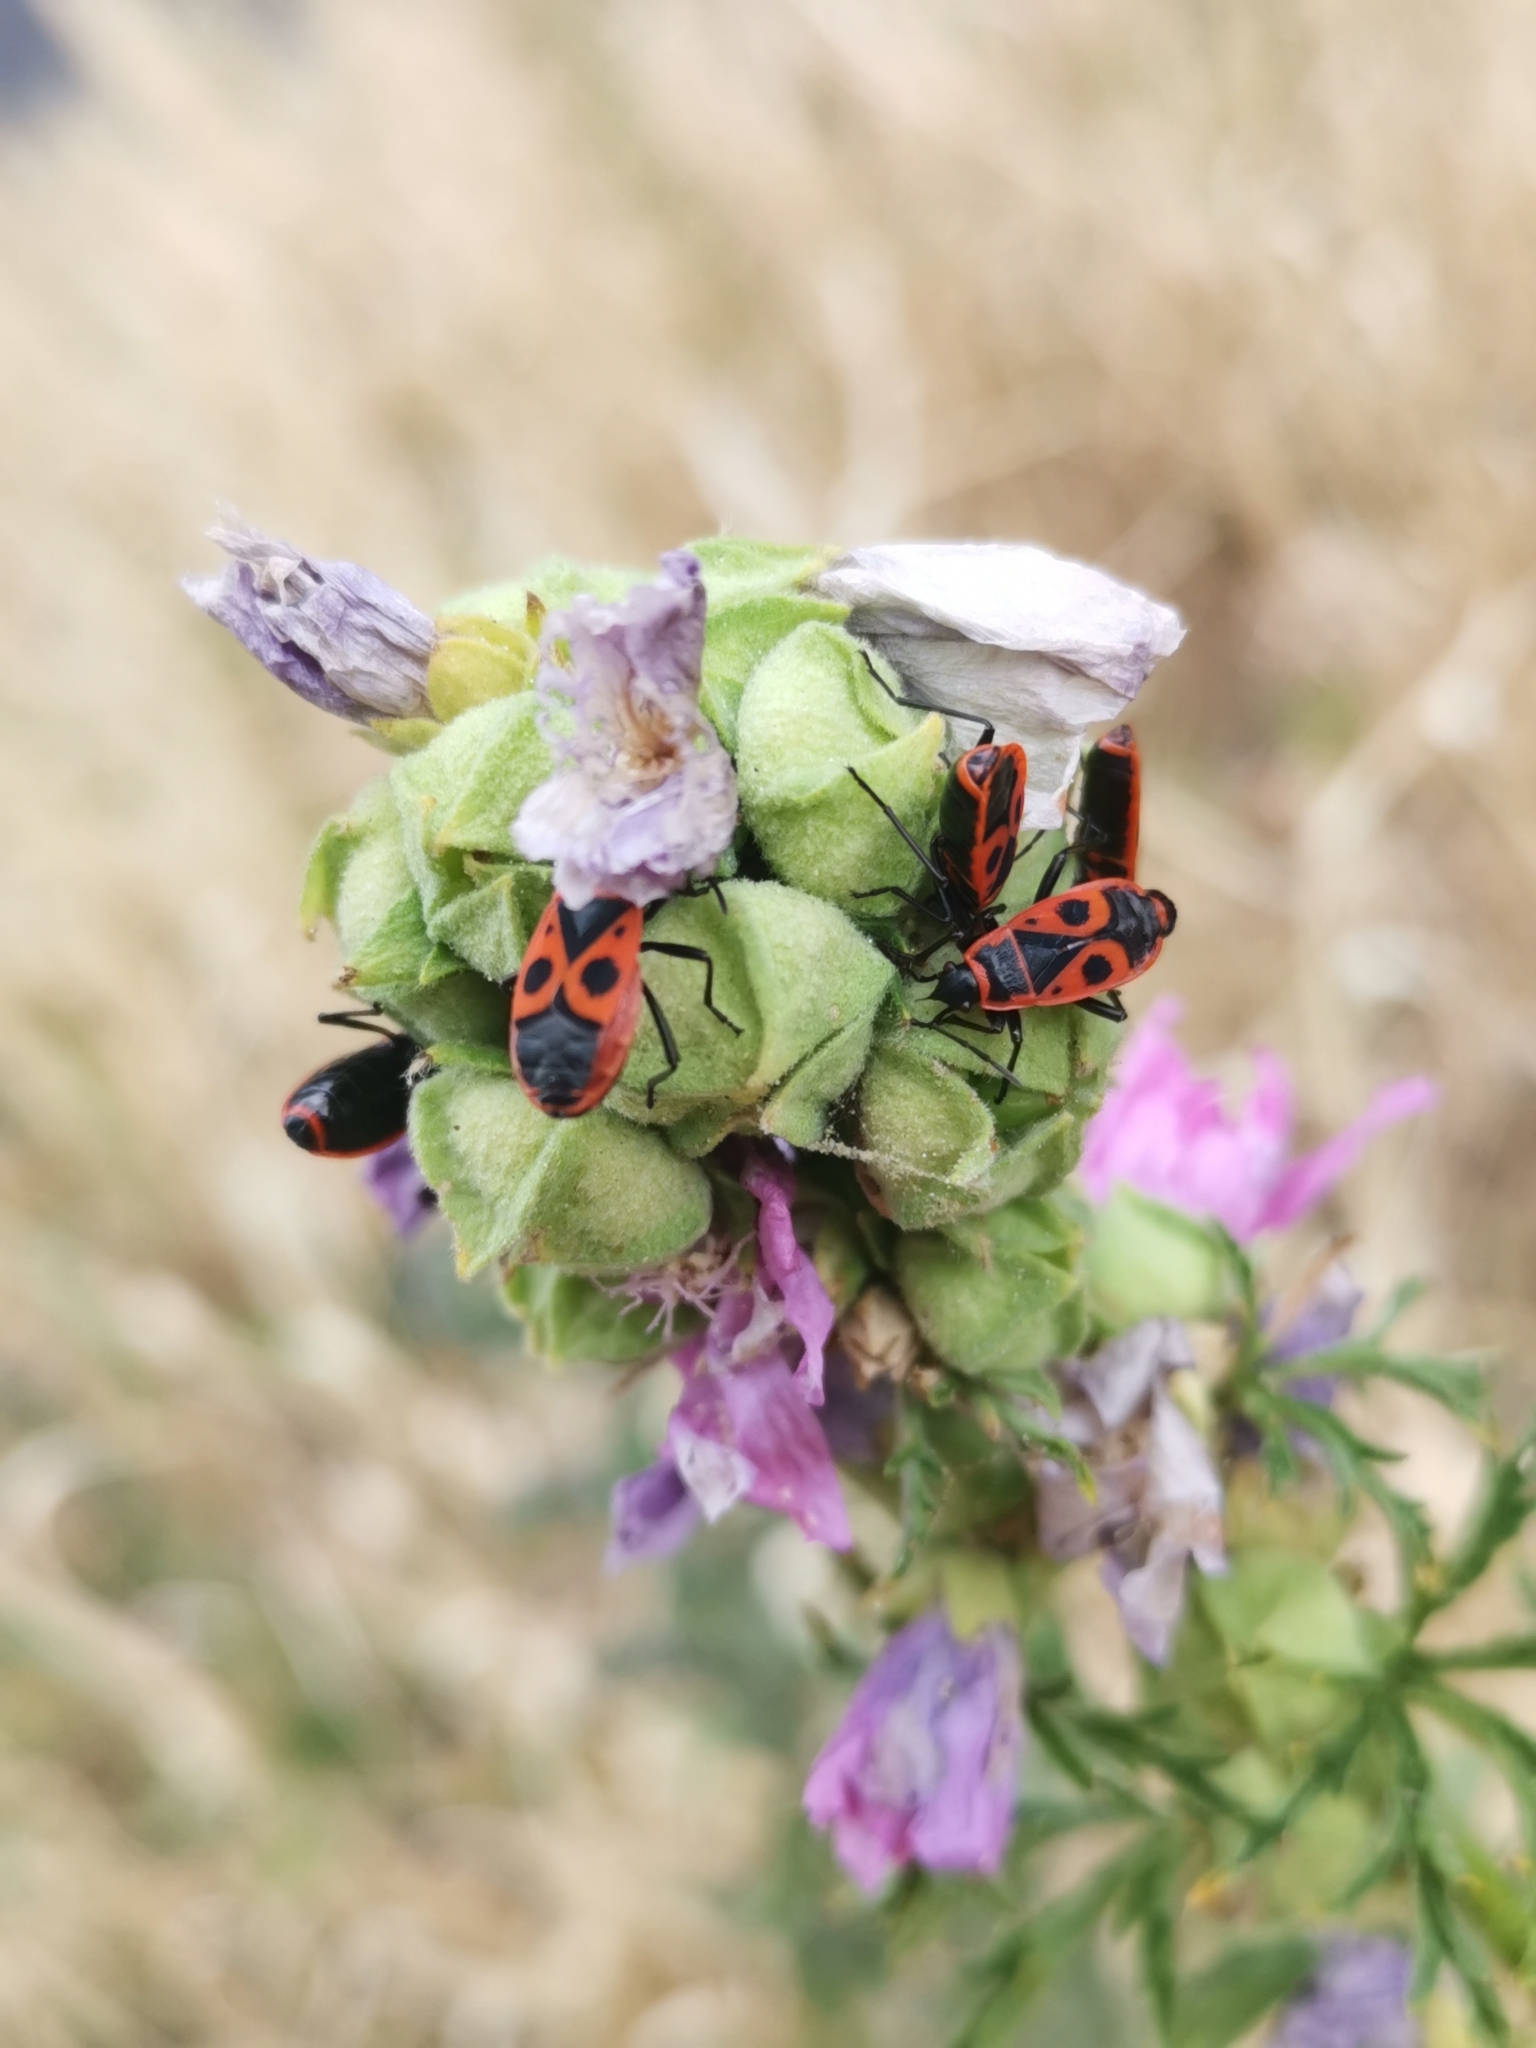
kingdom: Animalia
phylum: Arthropoda
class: Insecta
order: Hemiptera
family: Pyrrhocoridae
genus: Pyrrhocoris
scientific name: Pyrrhocoris apterus
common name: Firebug
